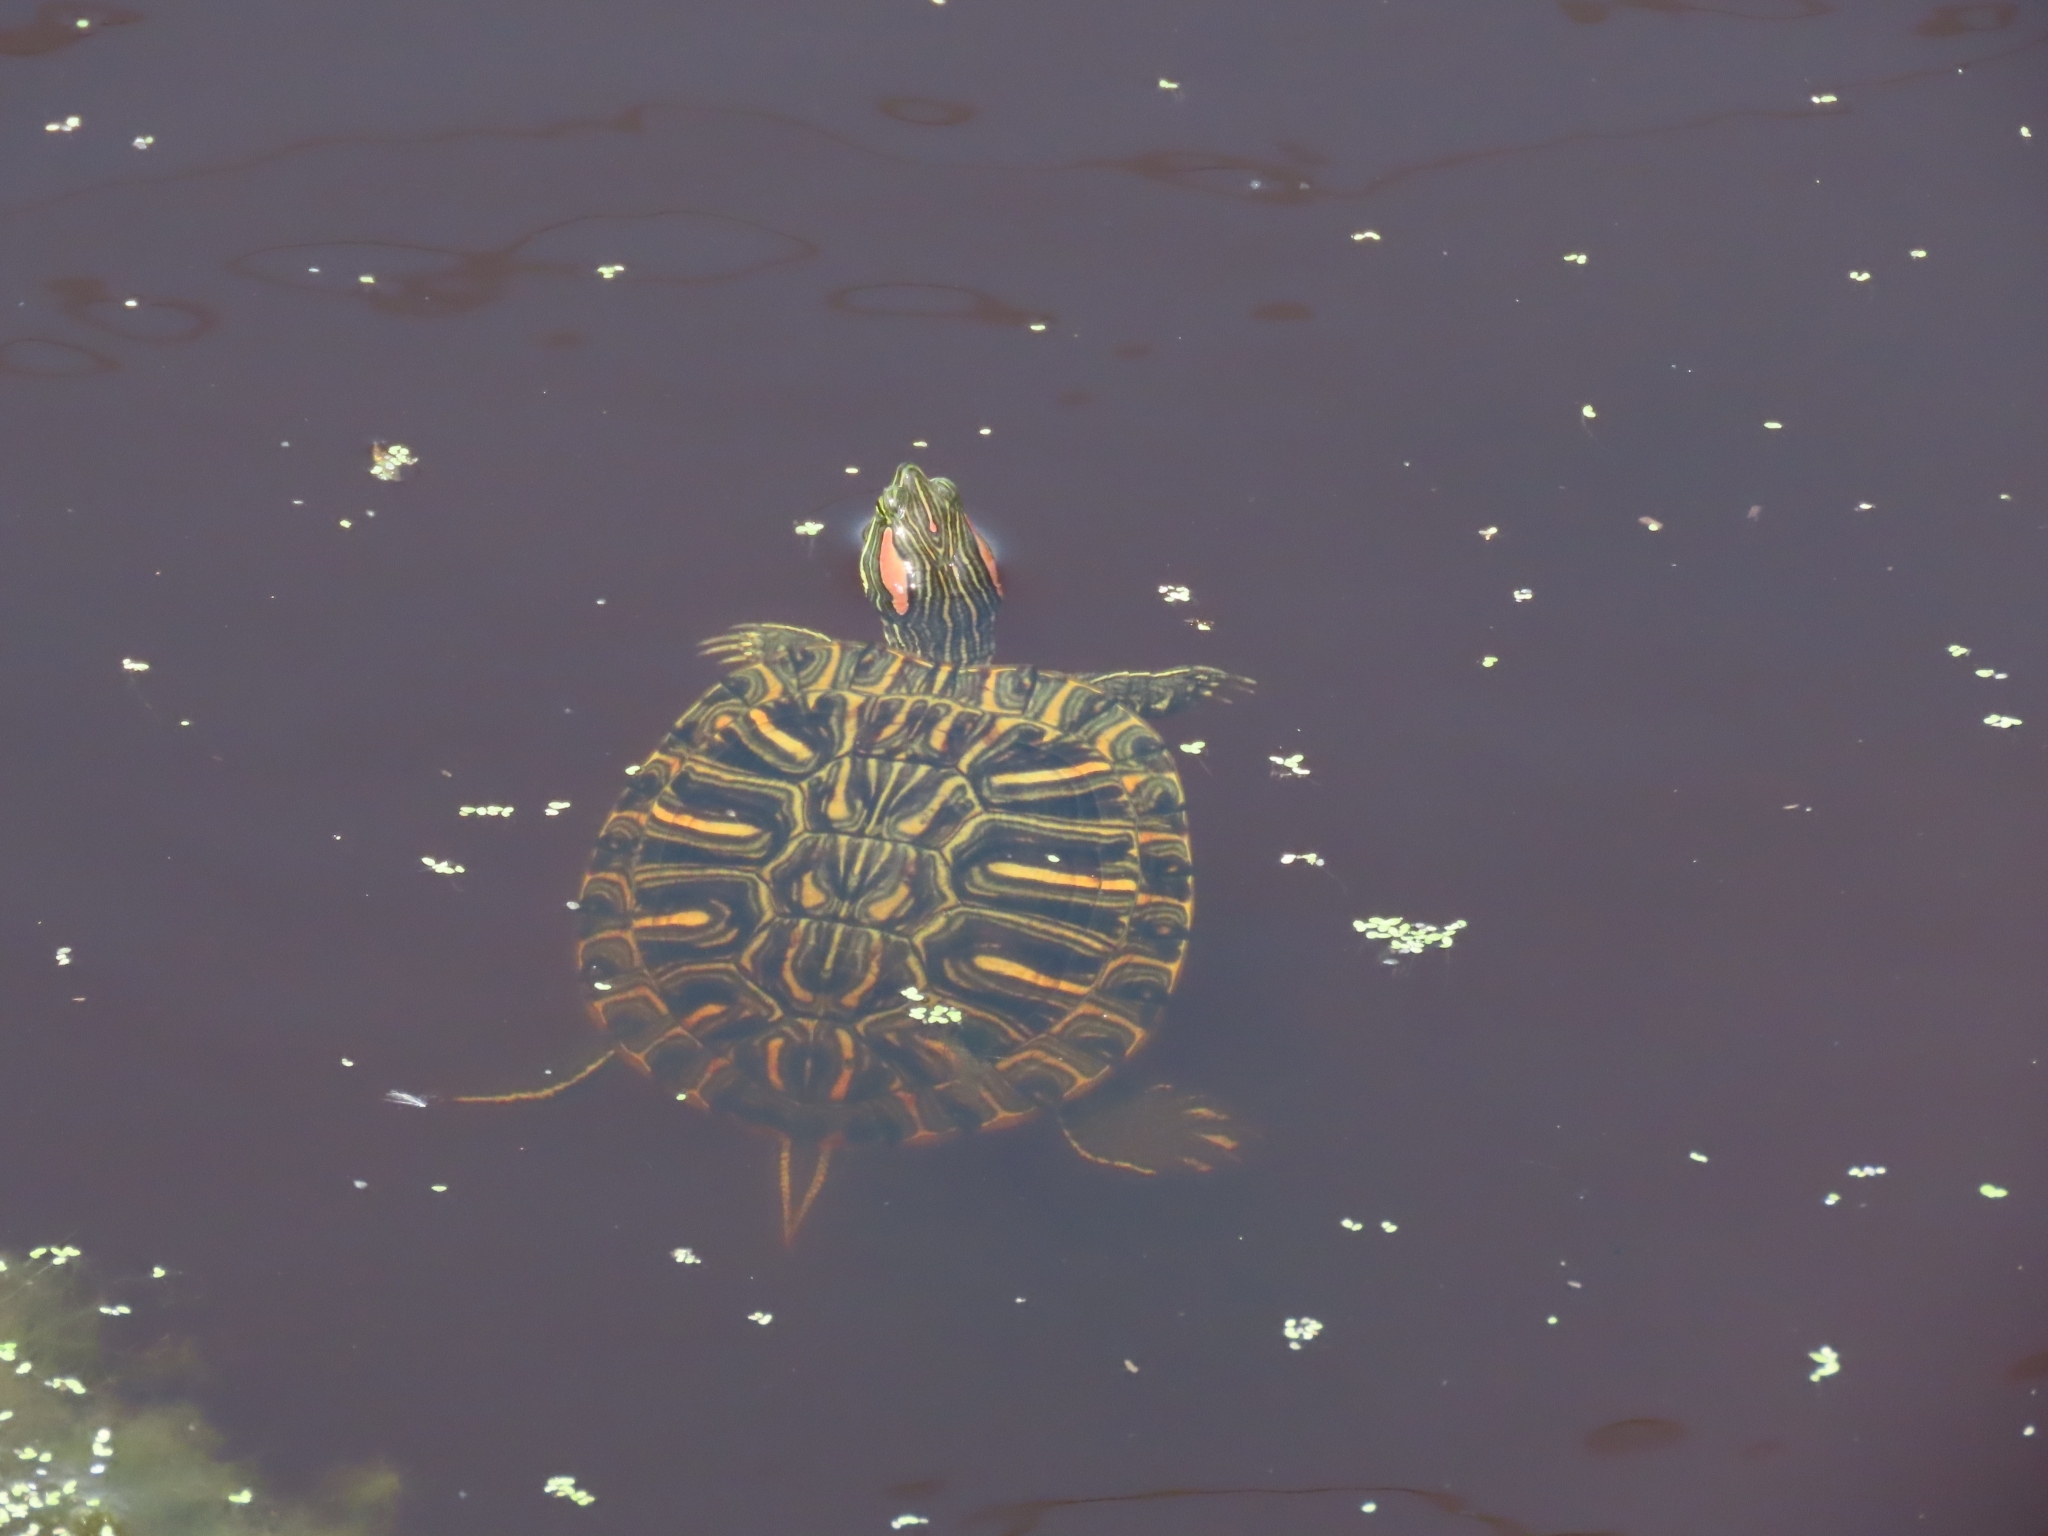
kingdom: Animalia
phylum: Chordata
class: Testudines
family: Emydidae
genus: Trachemys
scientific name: Trachemys scripta
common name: Slider
